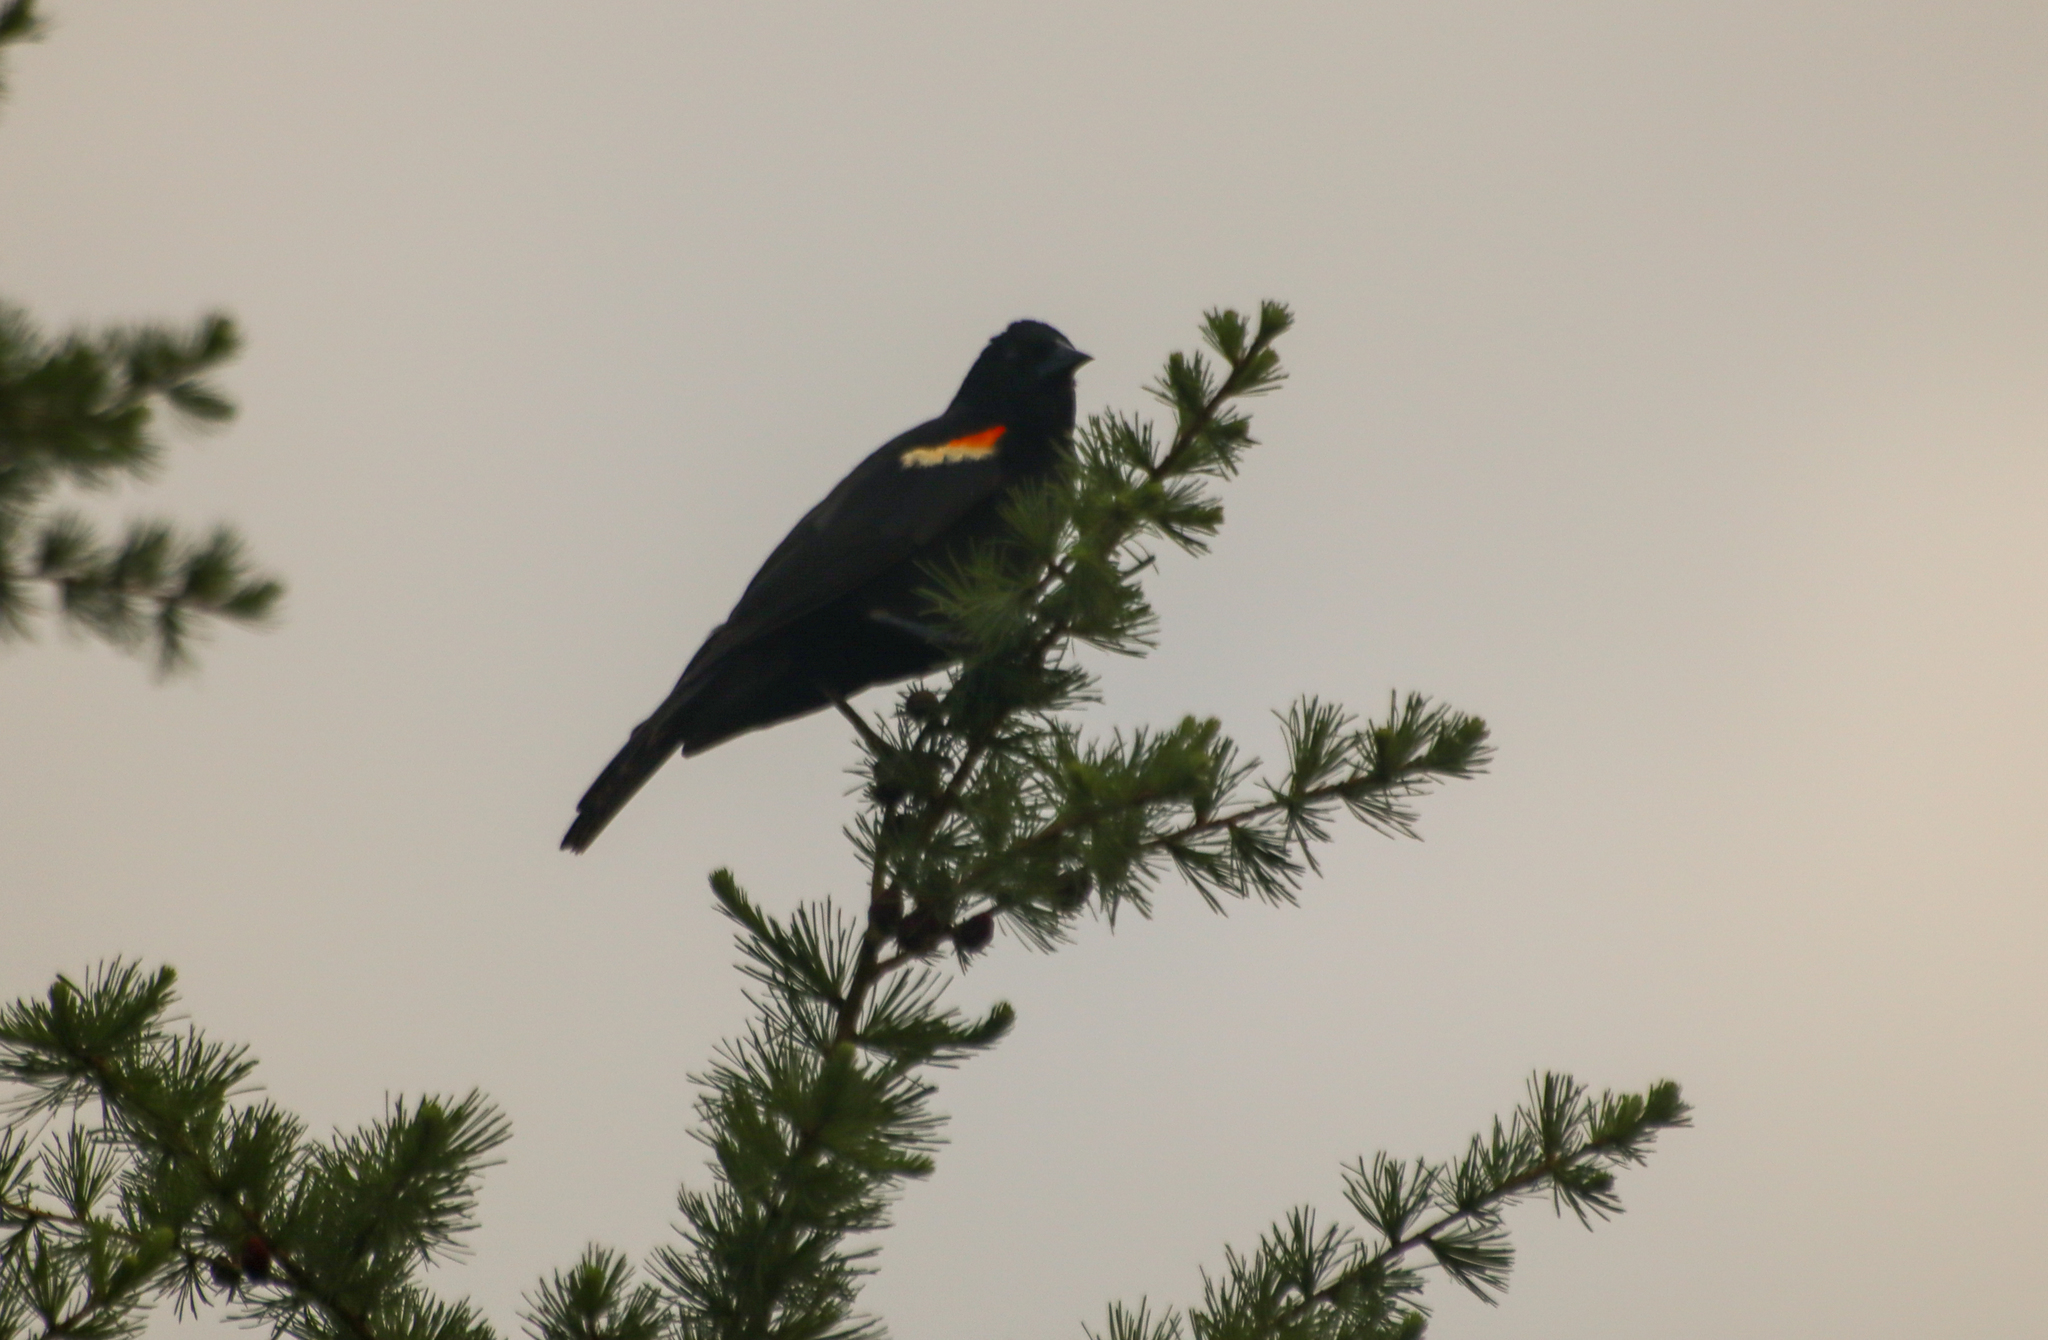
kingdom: Animalia
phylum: Chordata
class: Aves
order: Passeriformes
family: Icteridae
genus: Agelaius
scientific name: Agelaius phoeniceus
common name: Red-winged blackbird
